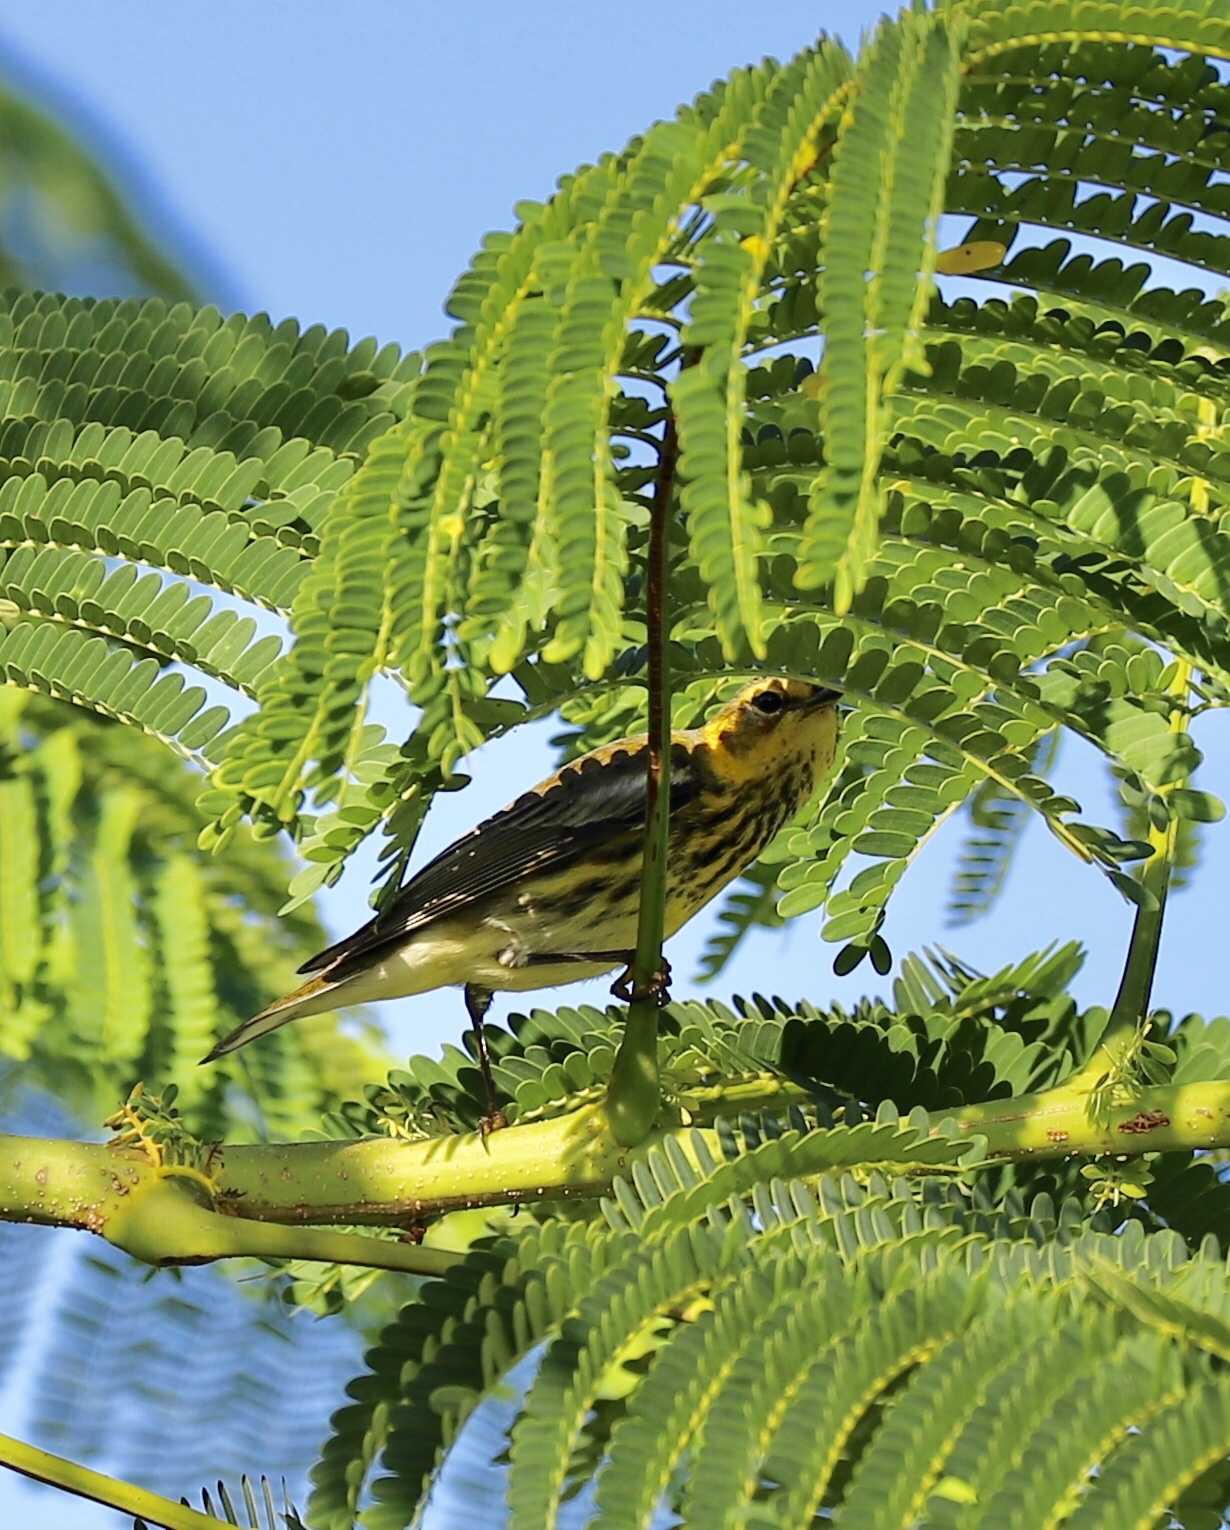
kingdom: Animalia
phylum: Chordata
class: Aves
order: Passeriformes
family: Parulidae
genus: Setophaga
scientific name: Setophaga tigrina
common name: Cape may warbler
